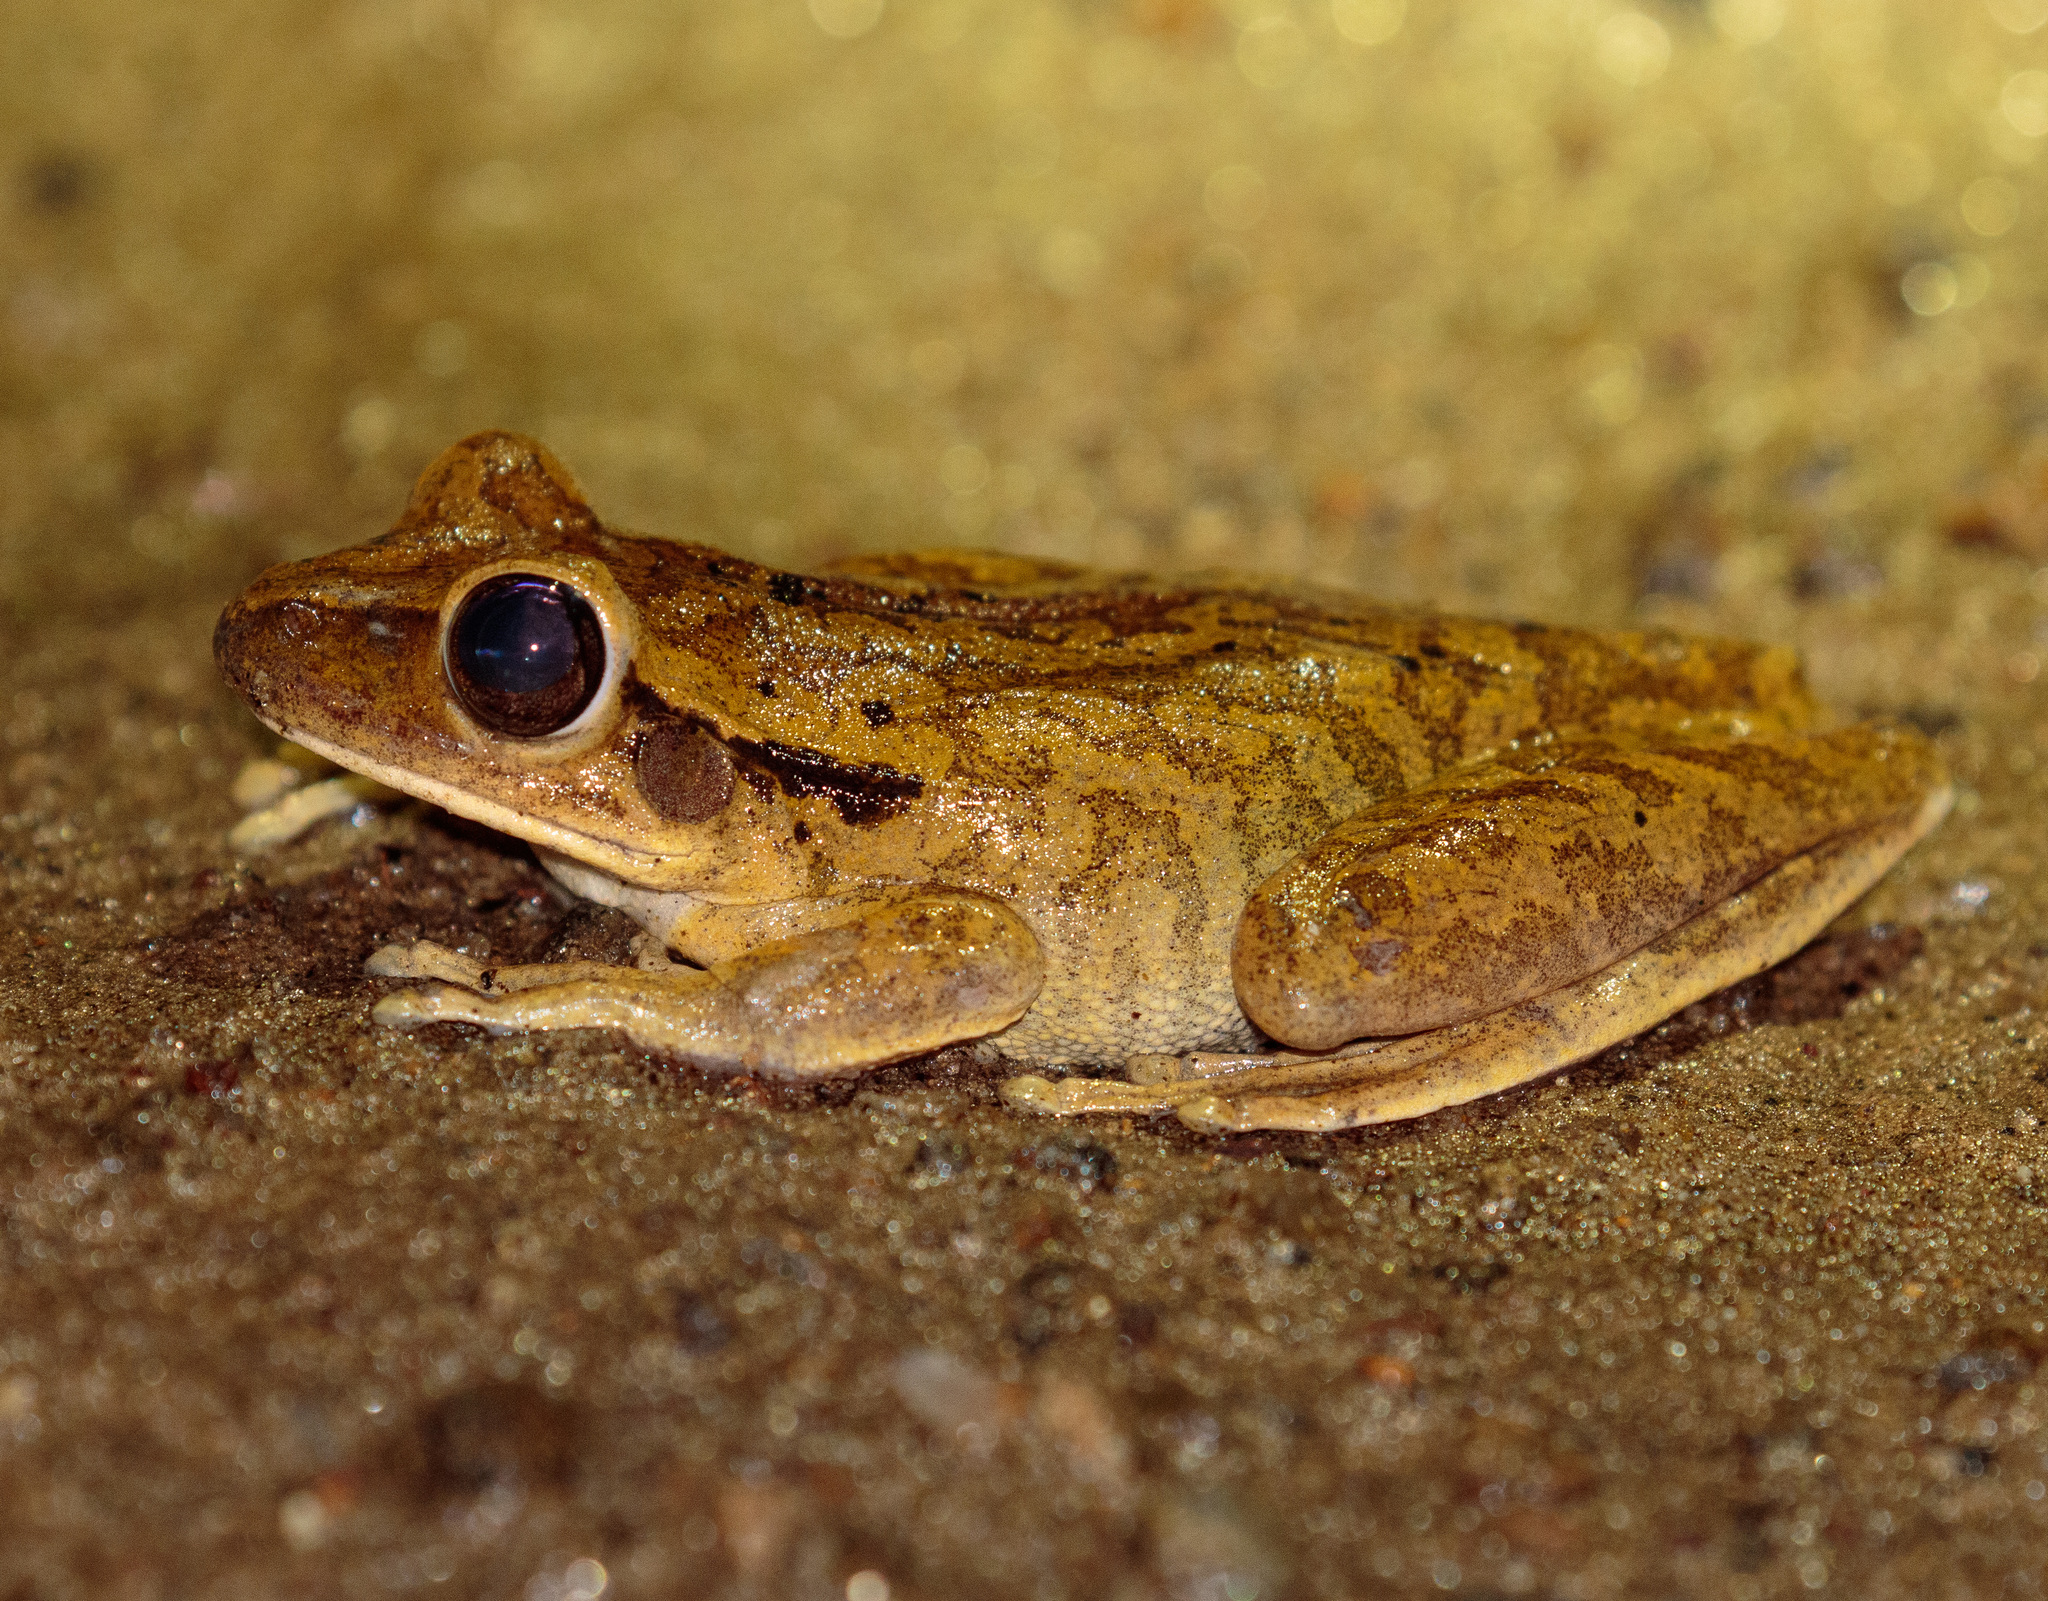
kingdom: Animalia
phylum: Chordata
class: Amphibia
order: Anura
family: Hylidae
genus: Boana
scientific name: Boana raniceps
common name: Chaco treefrog
